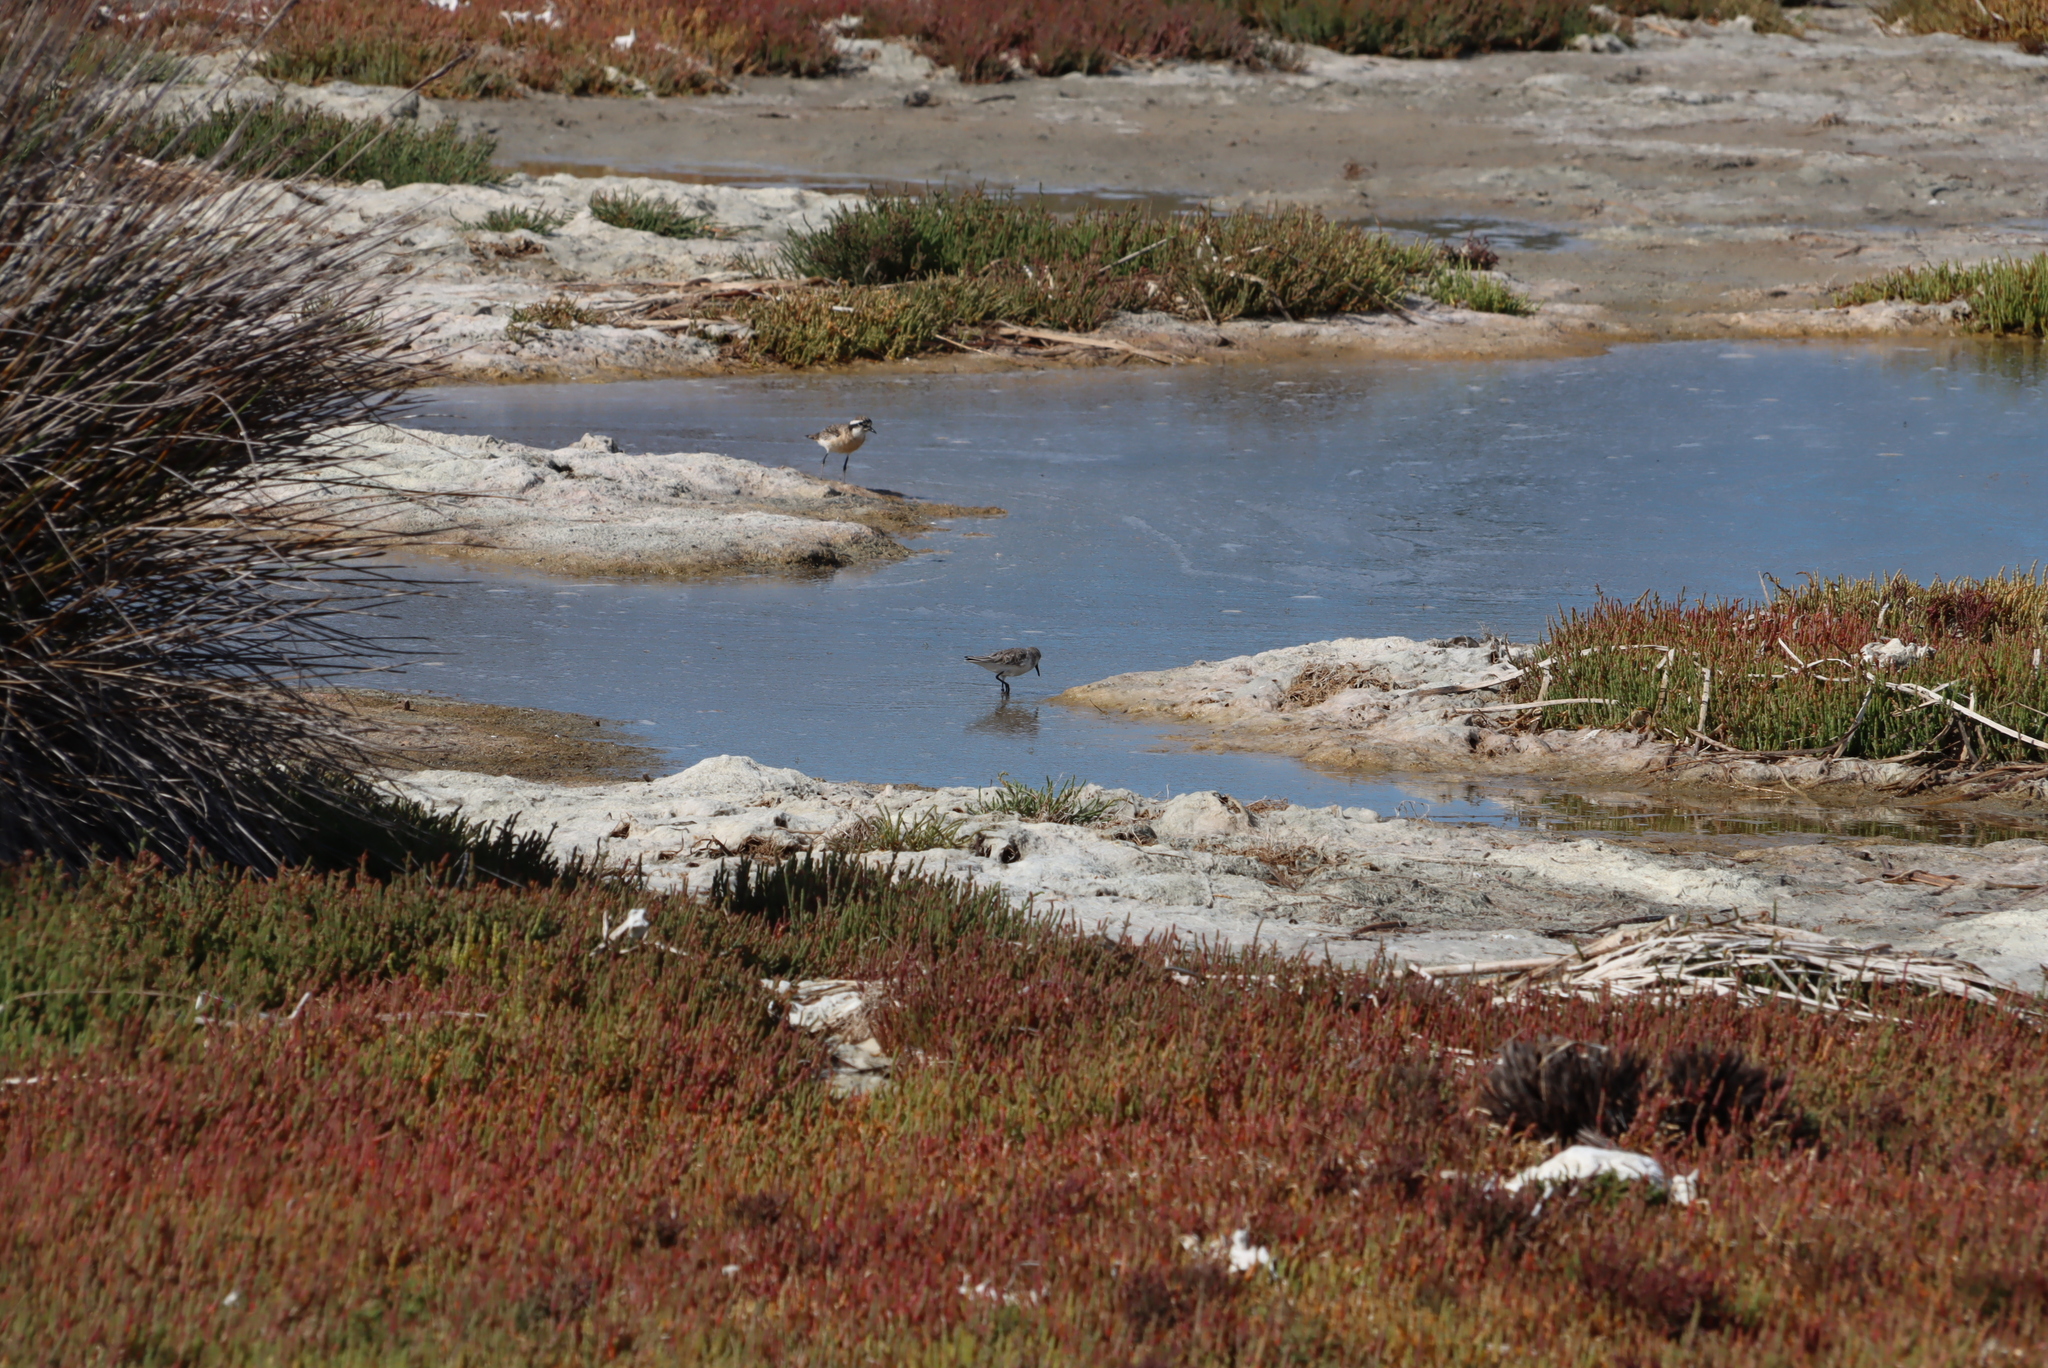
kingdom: Animalia
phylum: Chordata
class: Aves
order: Charadriiformes
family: Charadriidae
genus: Anarhynchus
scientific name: Anarhynchus
